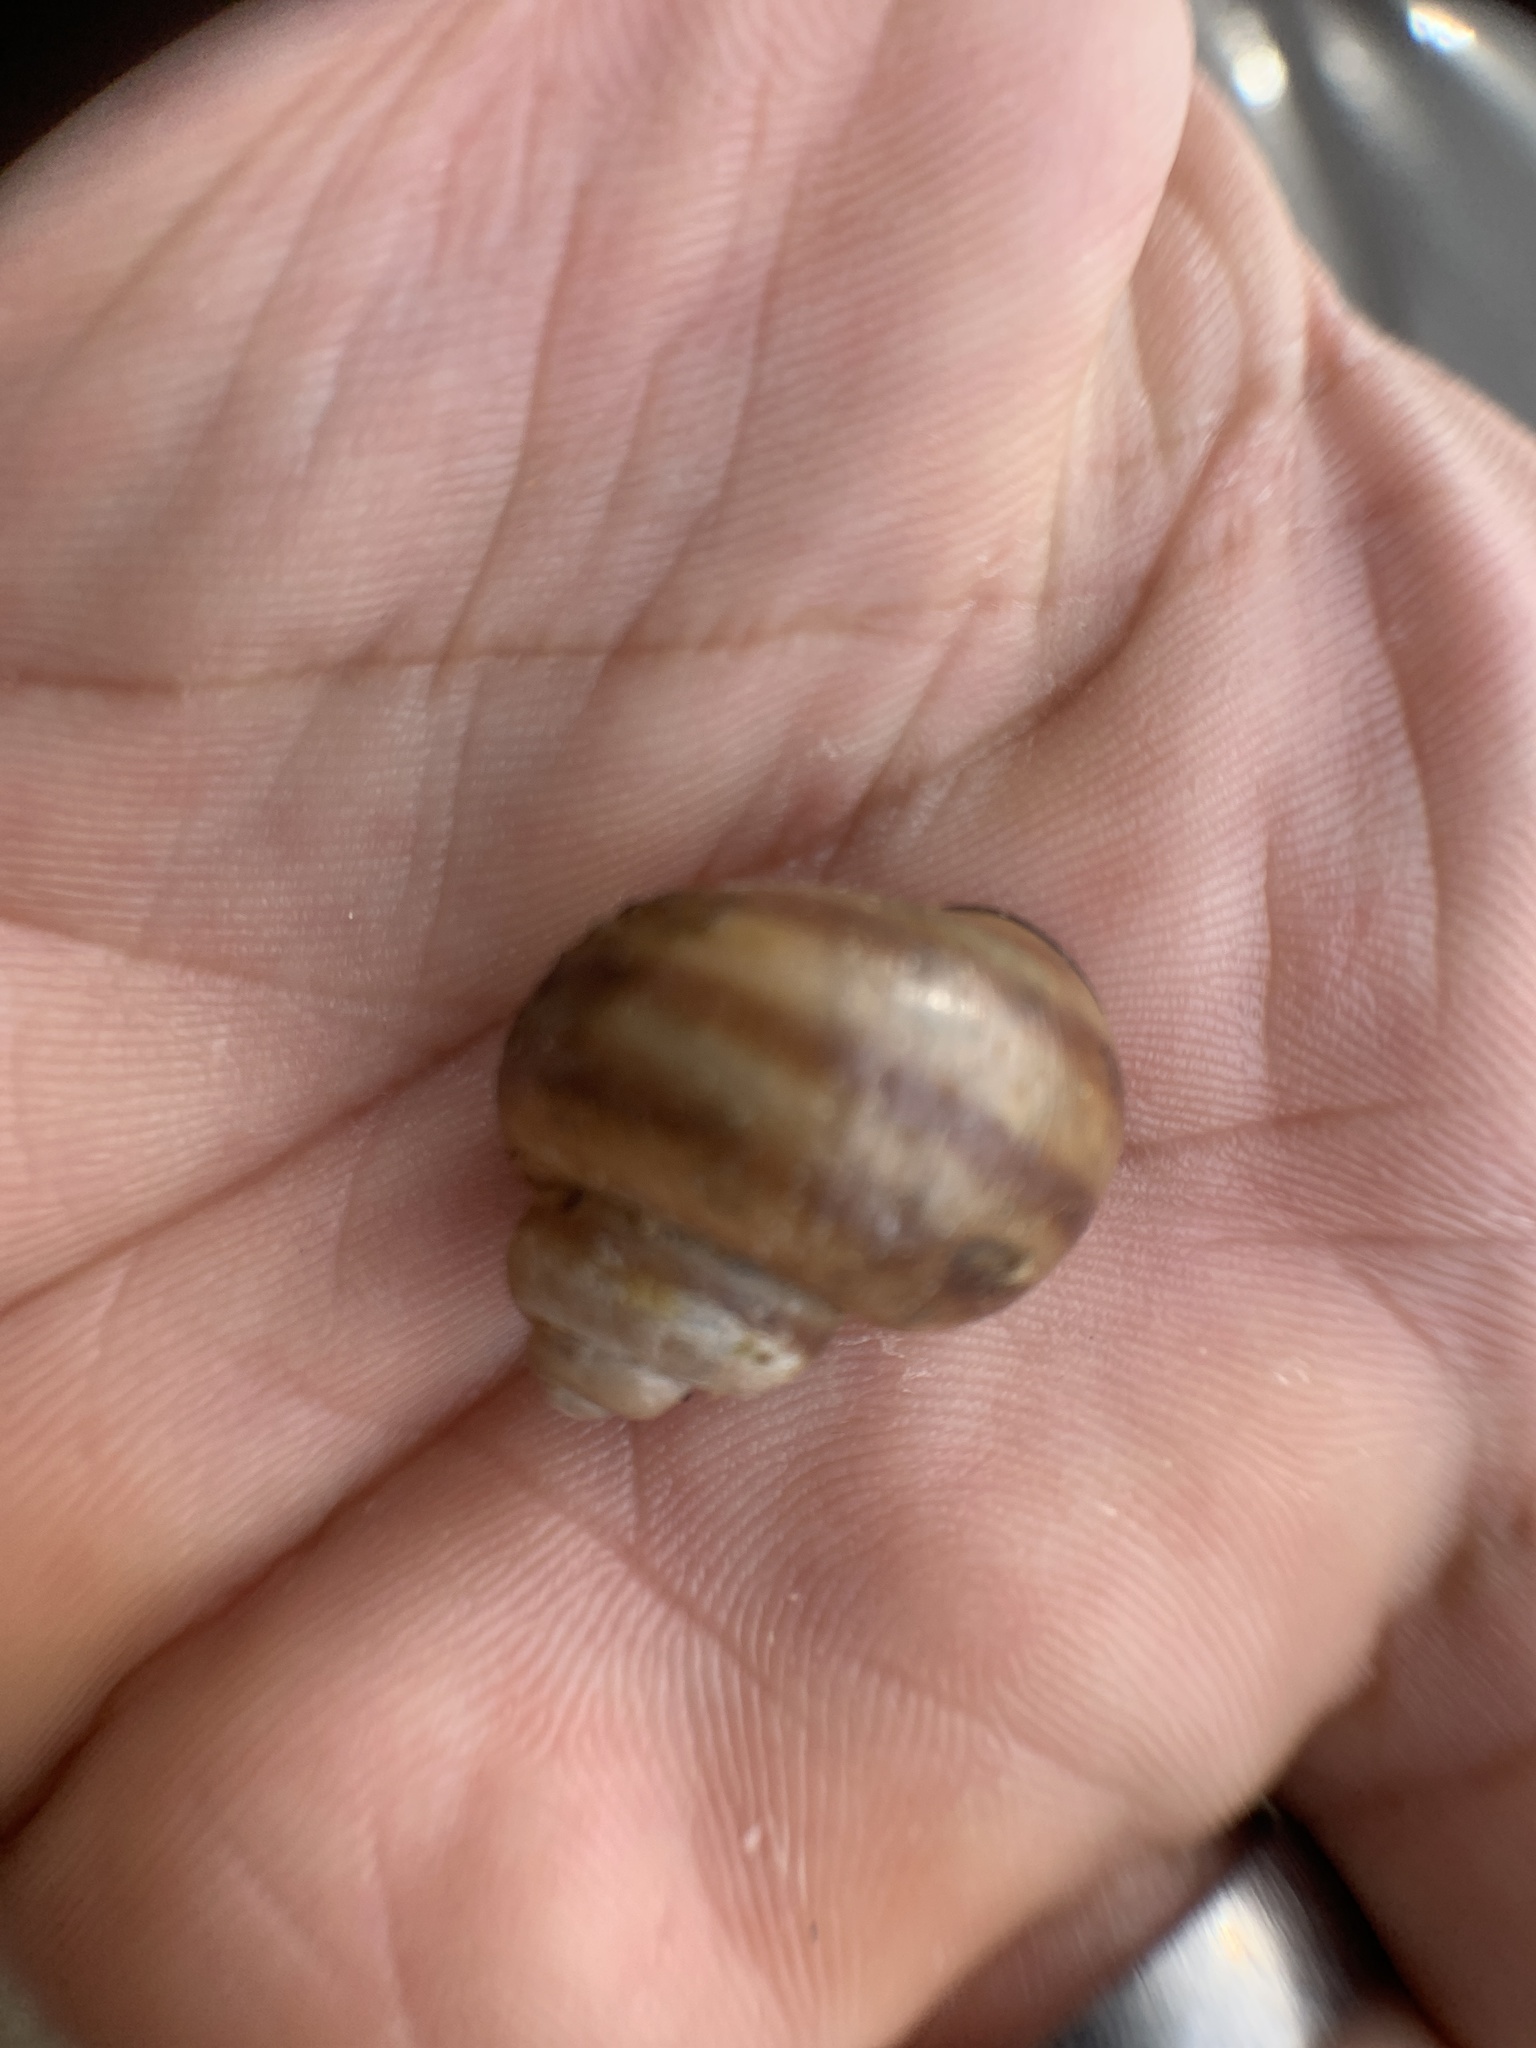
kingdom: Animalia
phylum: Mollusca
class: Gastropoda
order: Architaenioglossa
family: Viviparidae
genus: Callinina
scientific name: Callinina georgiana
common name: Banded mystery snail
